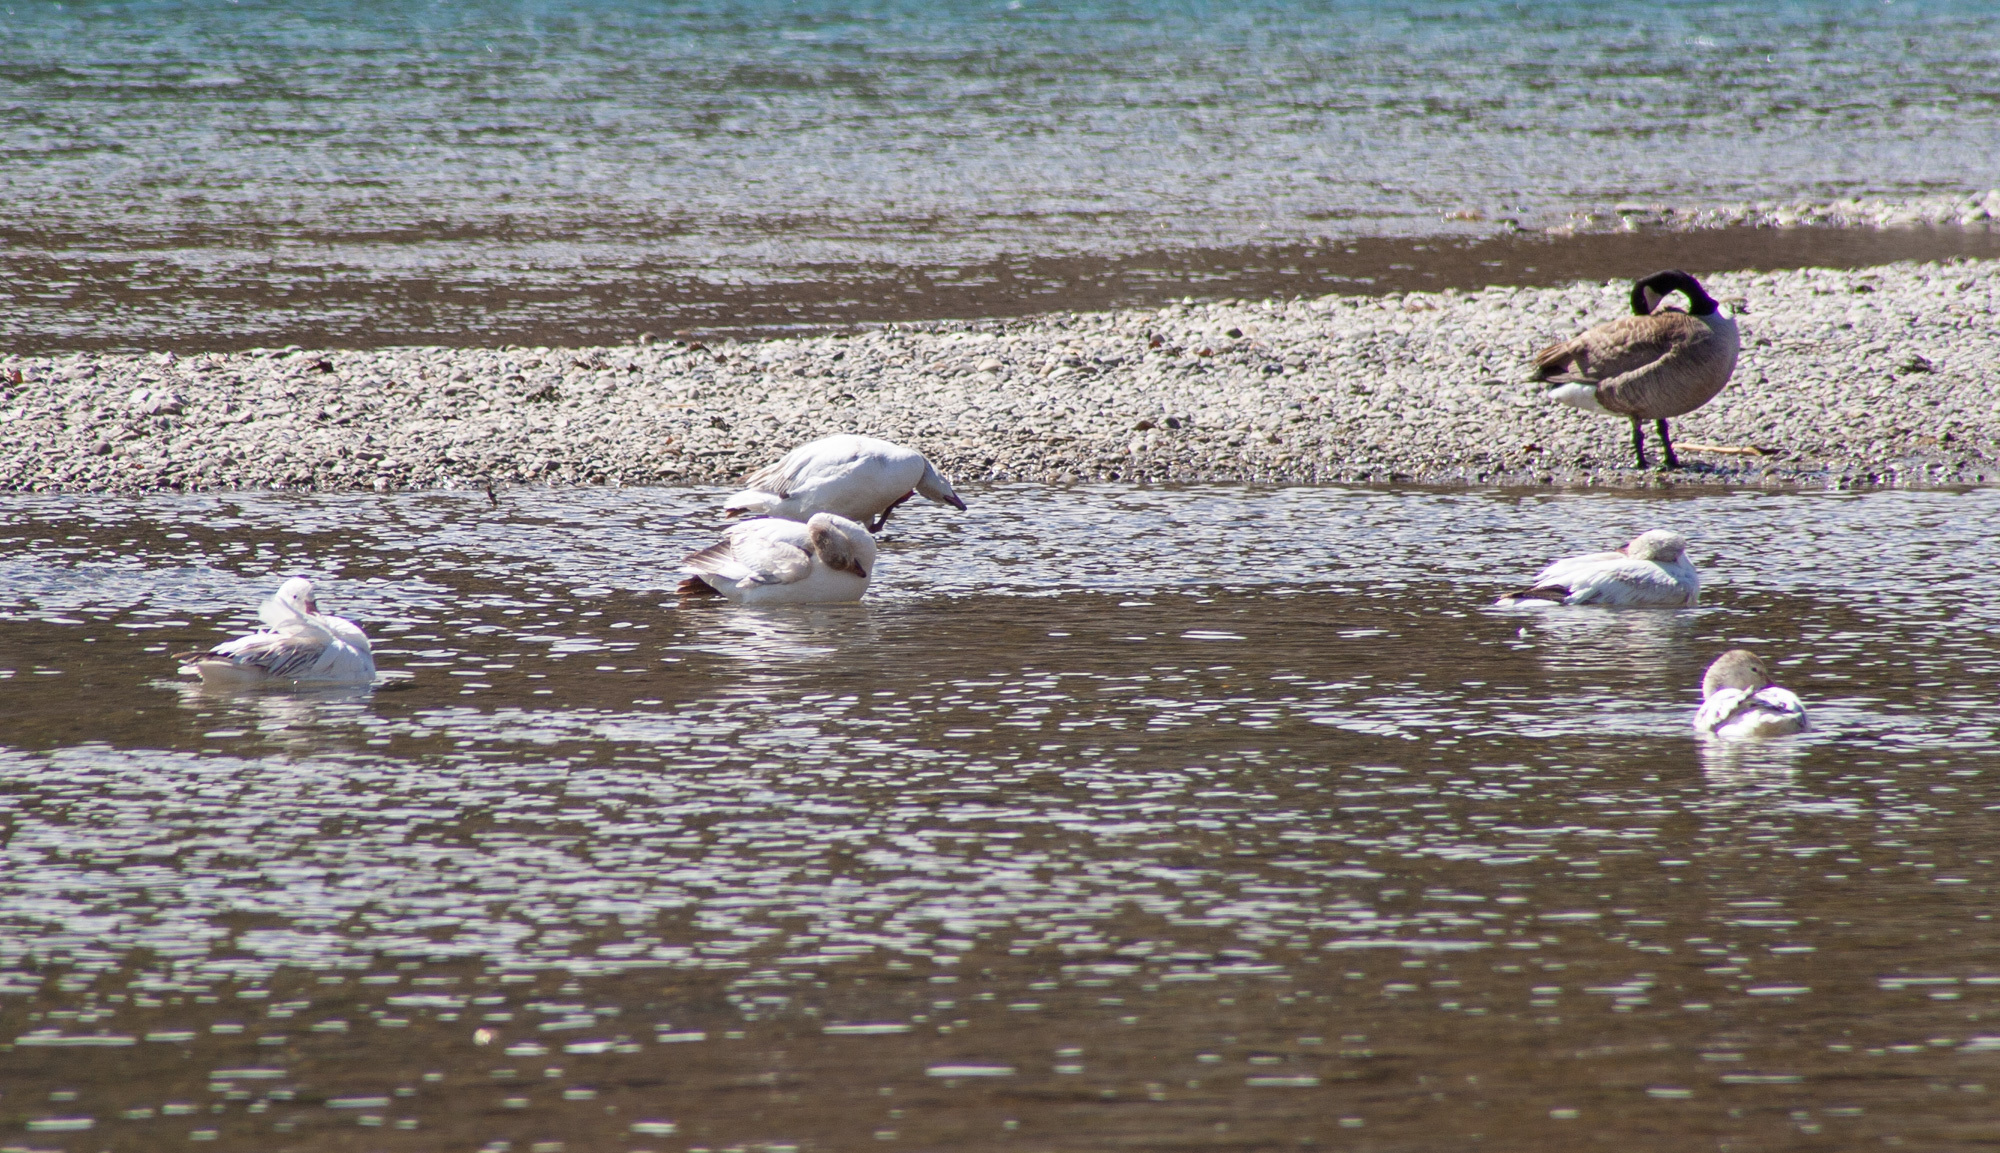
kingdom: Animalia
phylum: Chordata
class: Aves
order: Anseriformes
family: Anatidae
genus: Anser
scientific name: Anser caerulescens
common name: Snow goose
